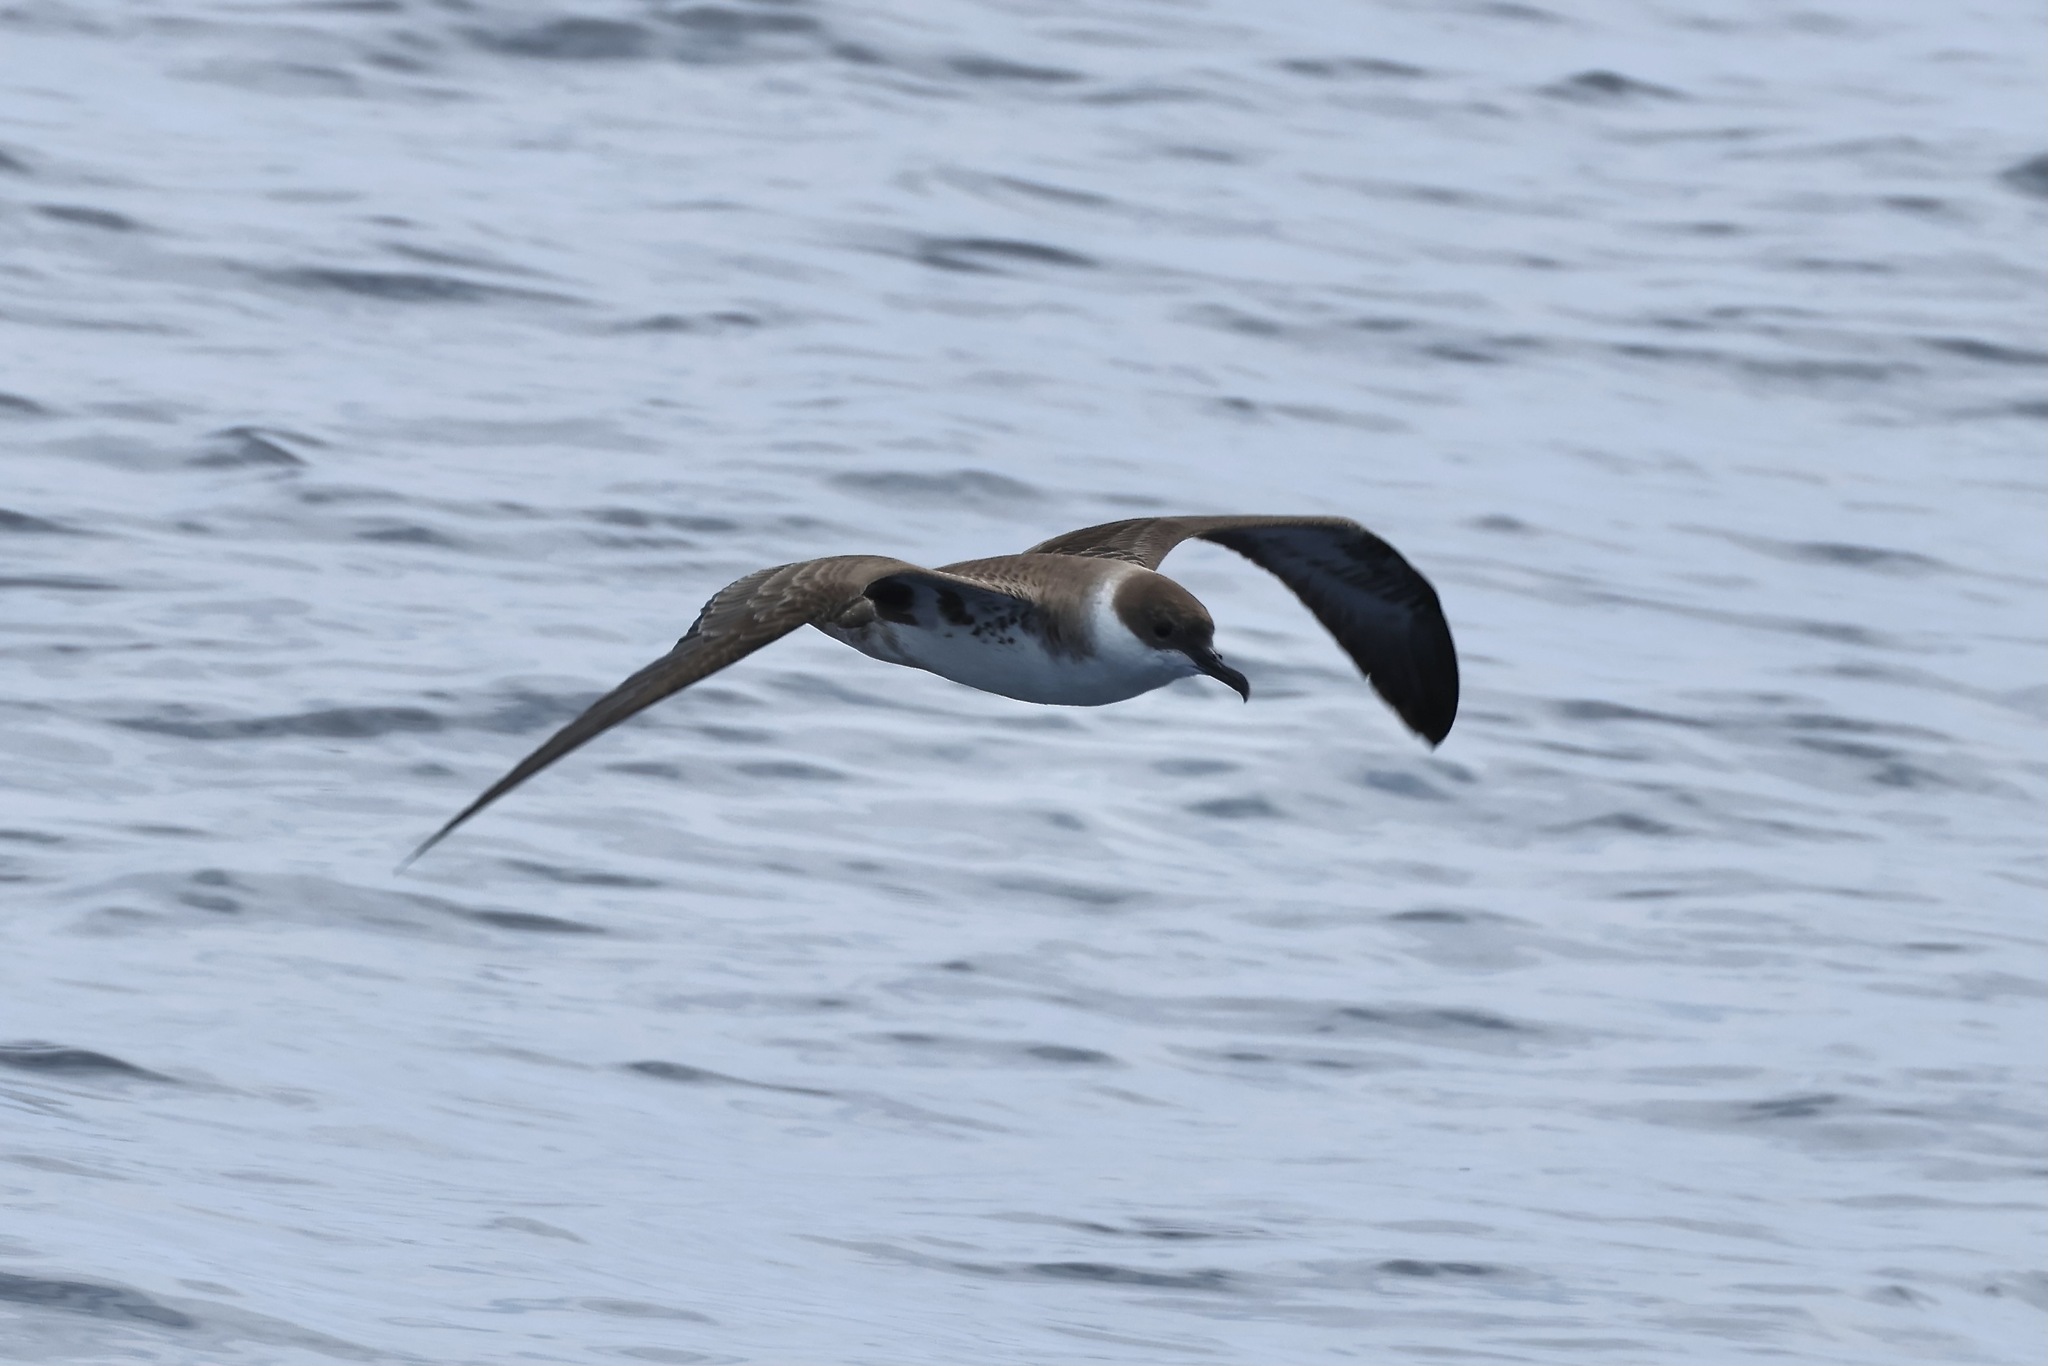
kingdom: Animalia
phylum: Chordata
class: Aves
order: Procellariiformes
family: Procellariidae
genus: Puffinus
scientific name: Puffinus gravis
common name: Great shearwater
